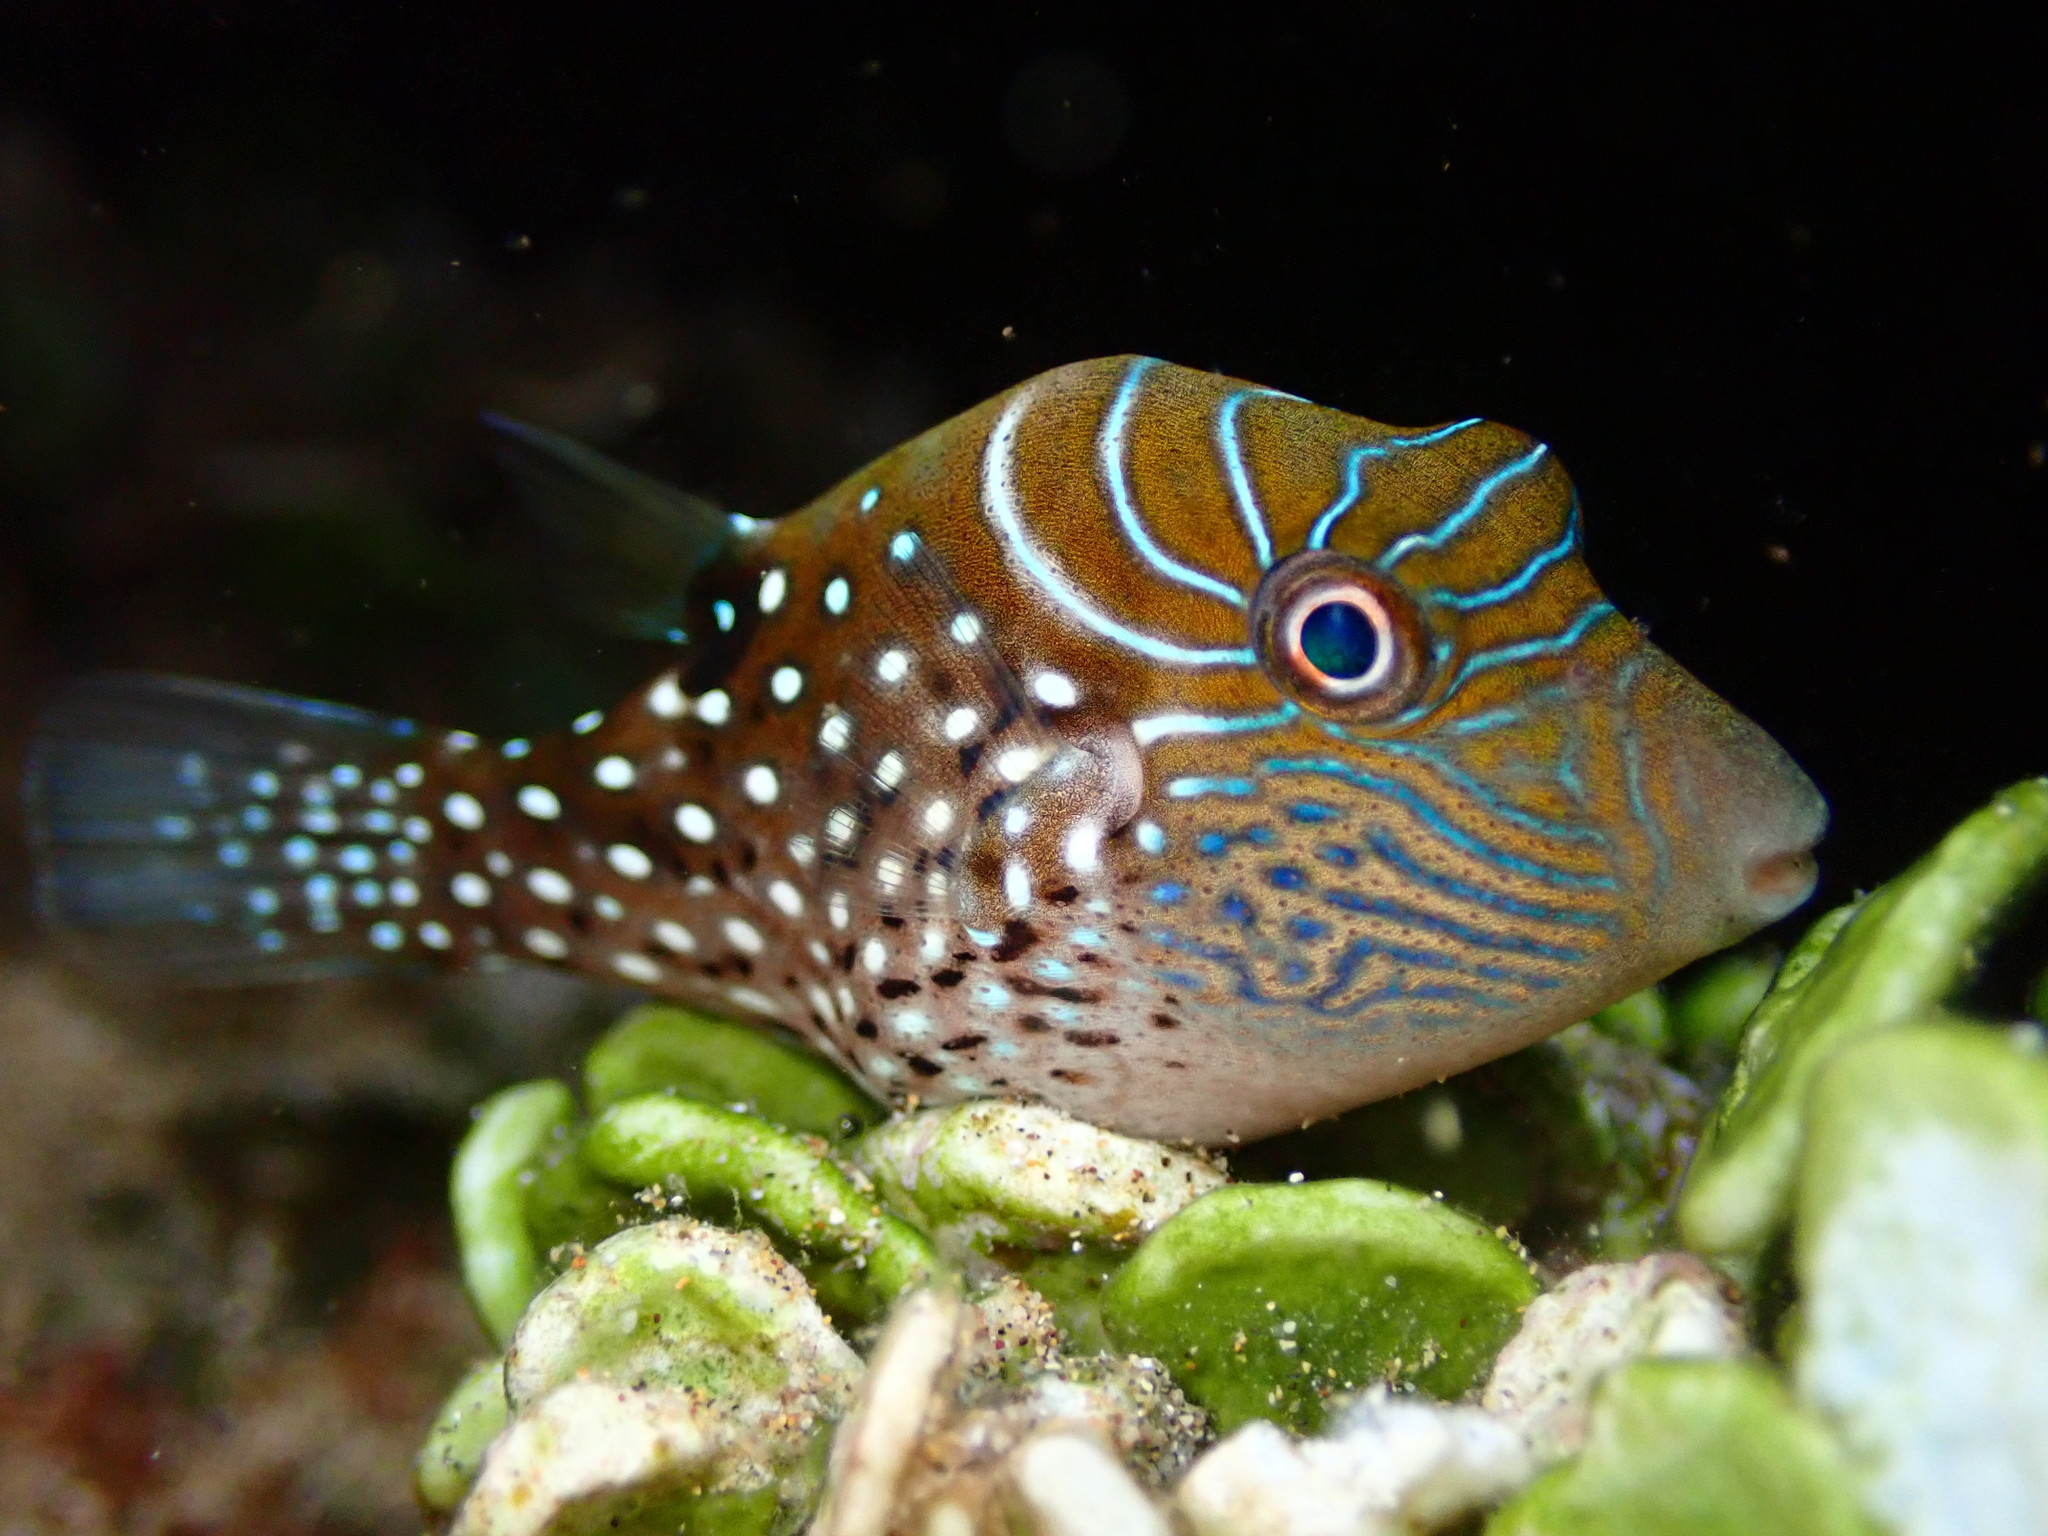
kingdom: Animalia
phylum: Chordata
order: Tetraodontiformes
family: Tetraodontidae
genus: Canthigaster
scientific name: Canthigaster amboinensis
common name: Ambon pufferfish
